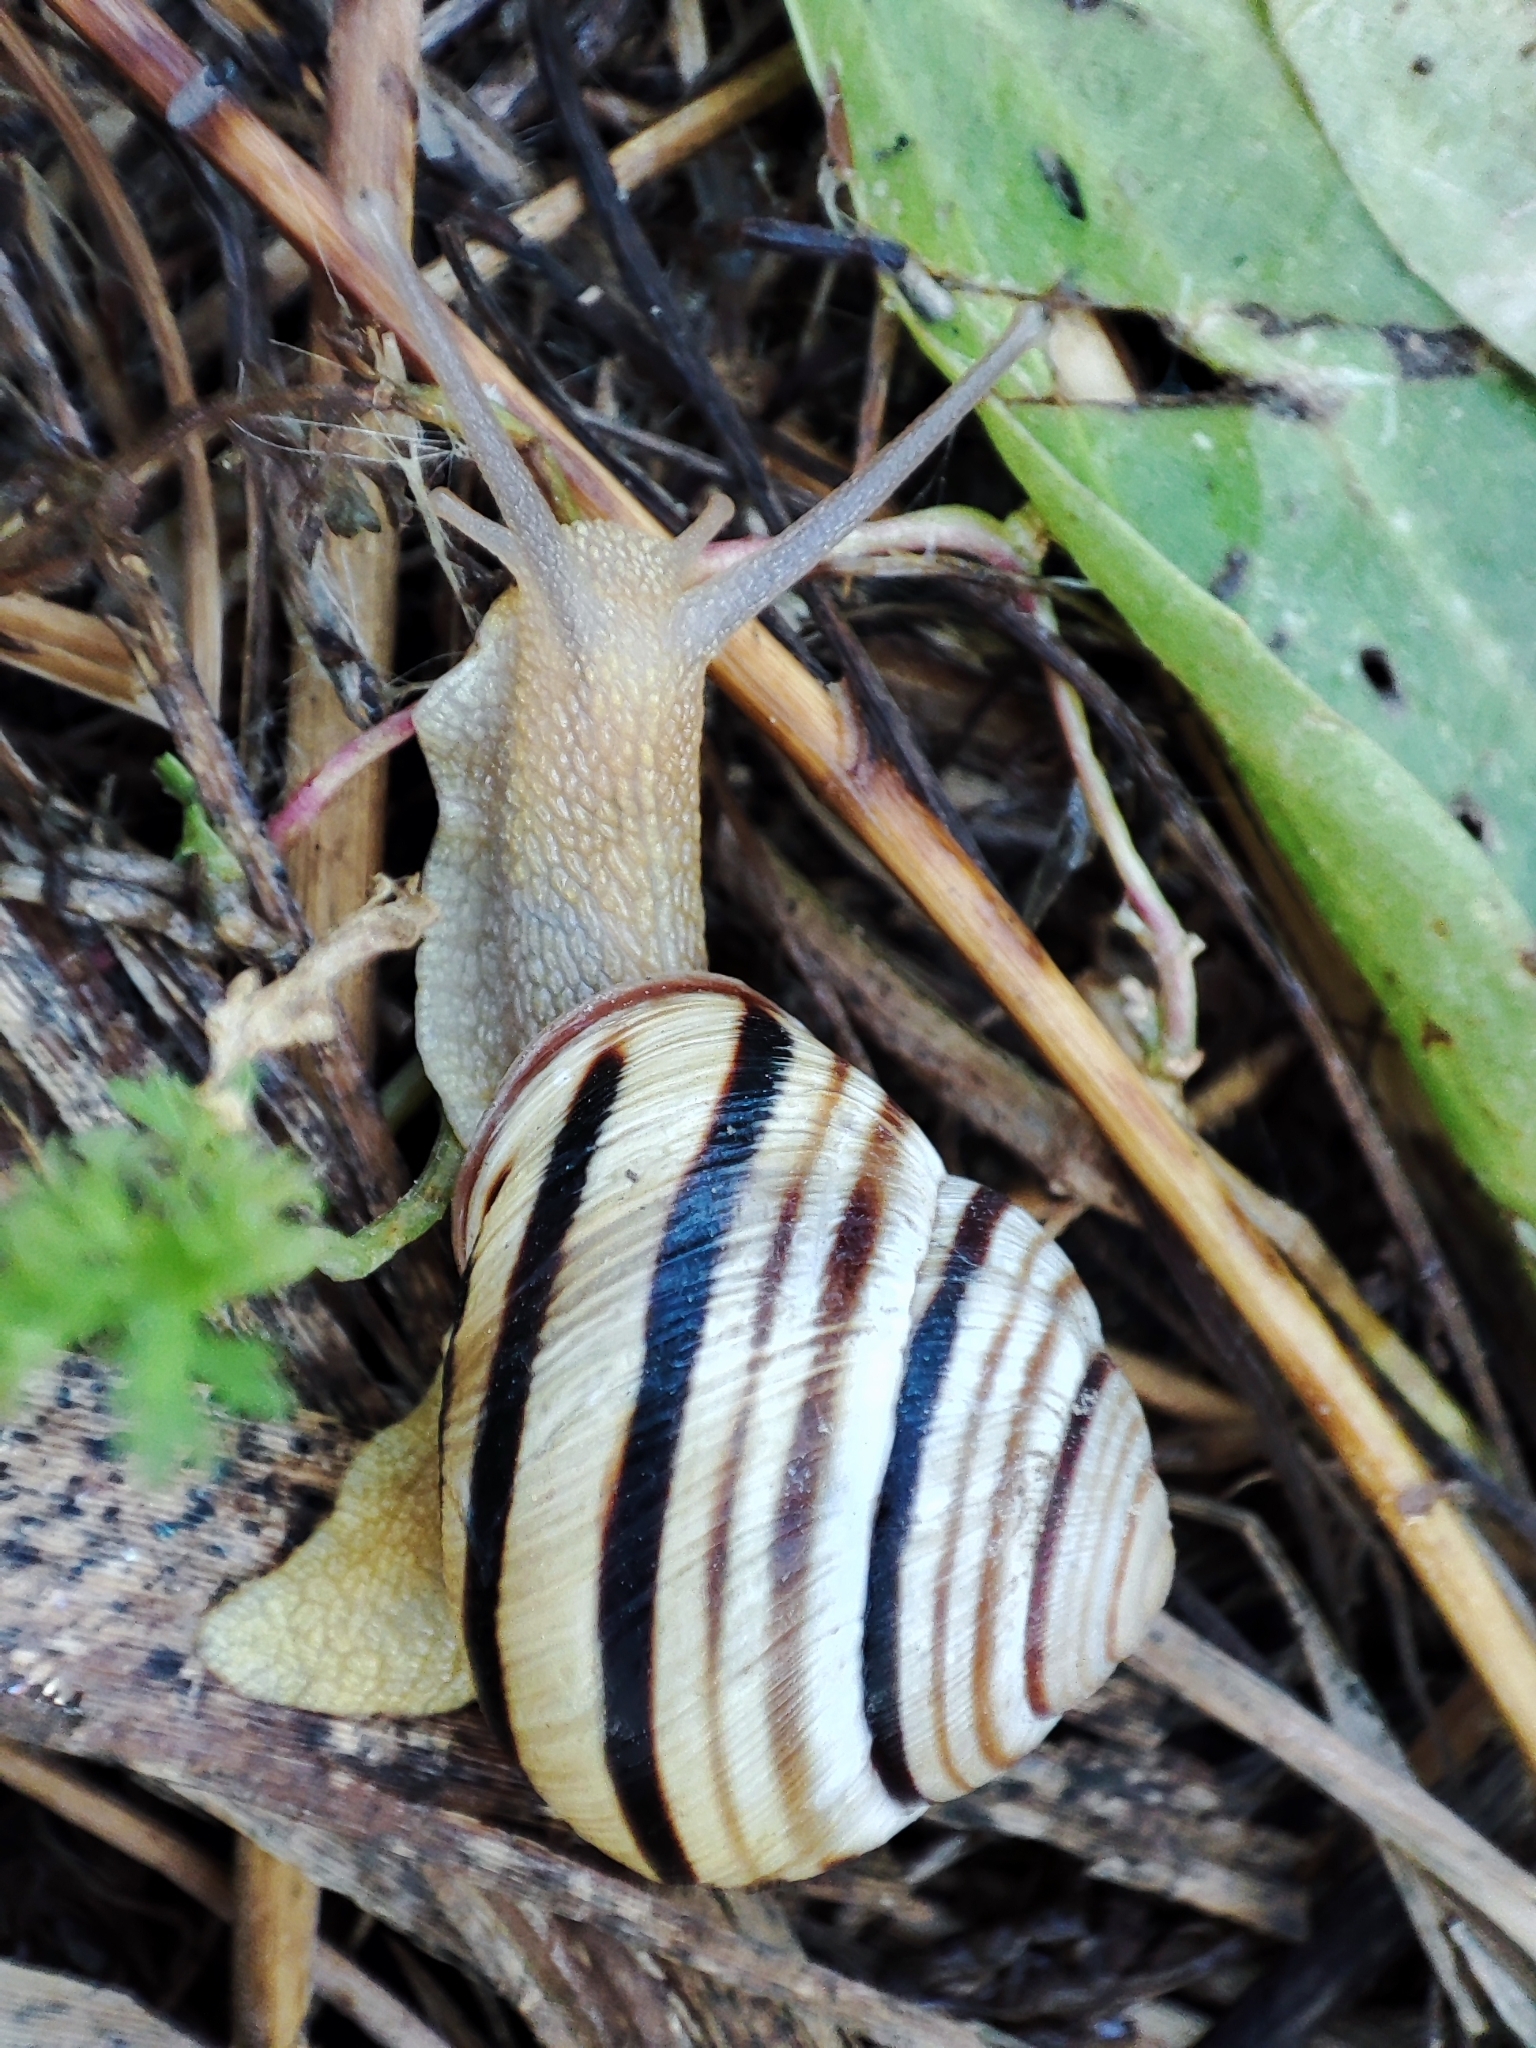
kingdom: Animalia
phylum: Mollusca
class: Gastropoda
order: Stylommatophora
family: Helicidae
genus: Caucasotachea
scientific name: Caucasotachea vindobonensis
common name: European helicid land snail
